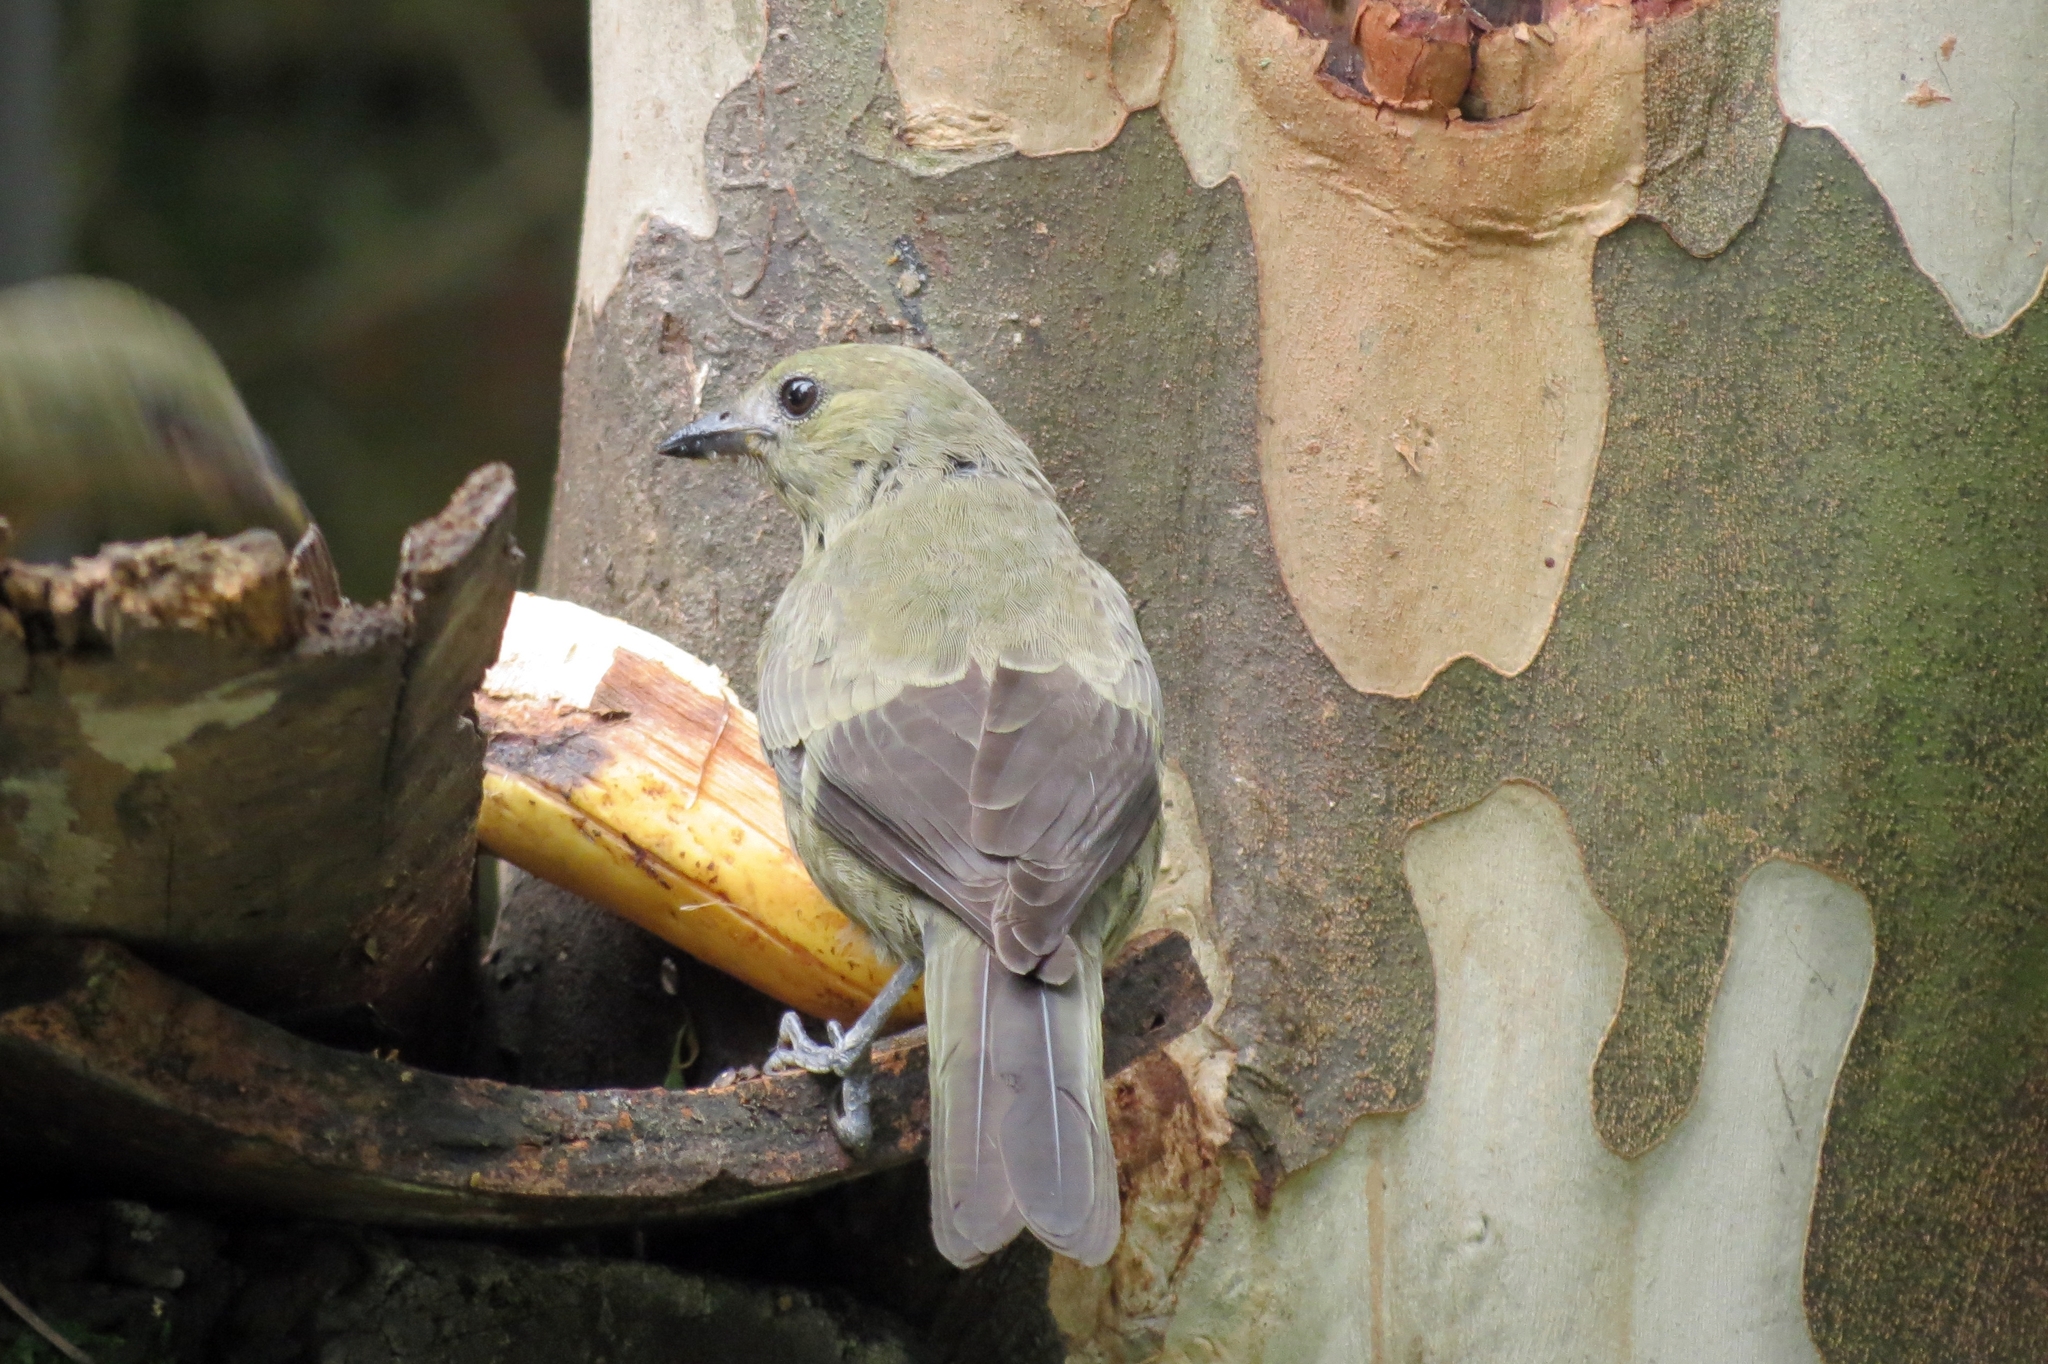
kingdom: Animalia
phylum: Chordata
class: Aves
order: Passeriformes
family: Thraupidae
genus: Thraupis
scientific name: Thraupis palmarum
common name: Palm tanager
